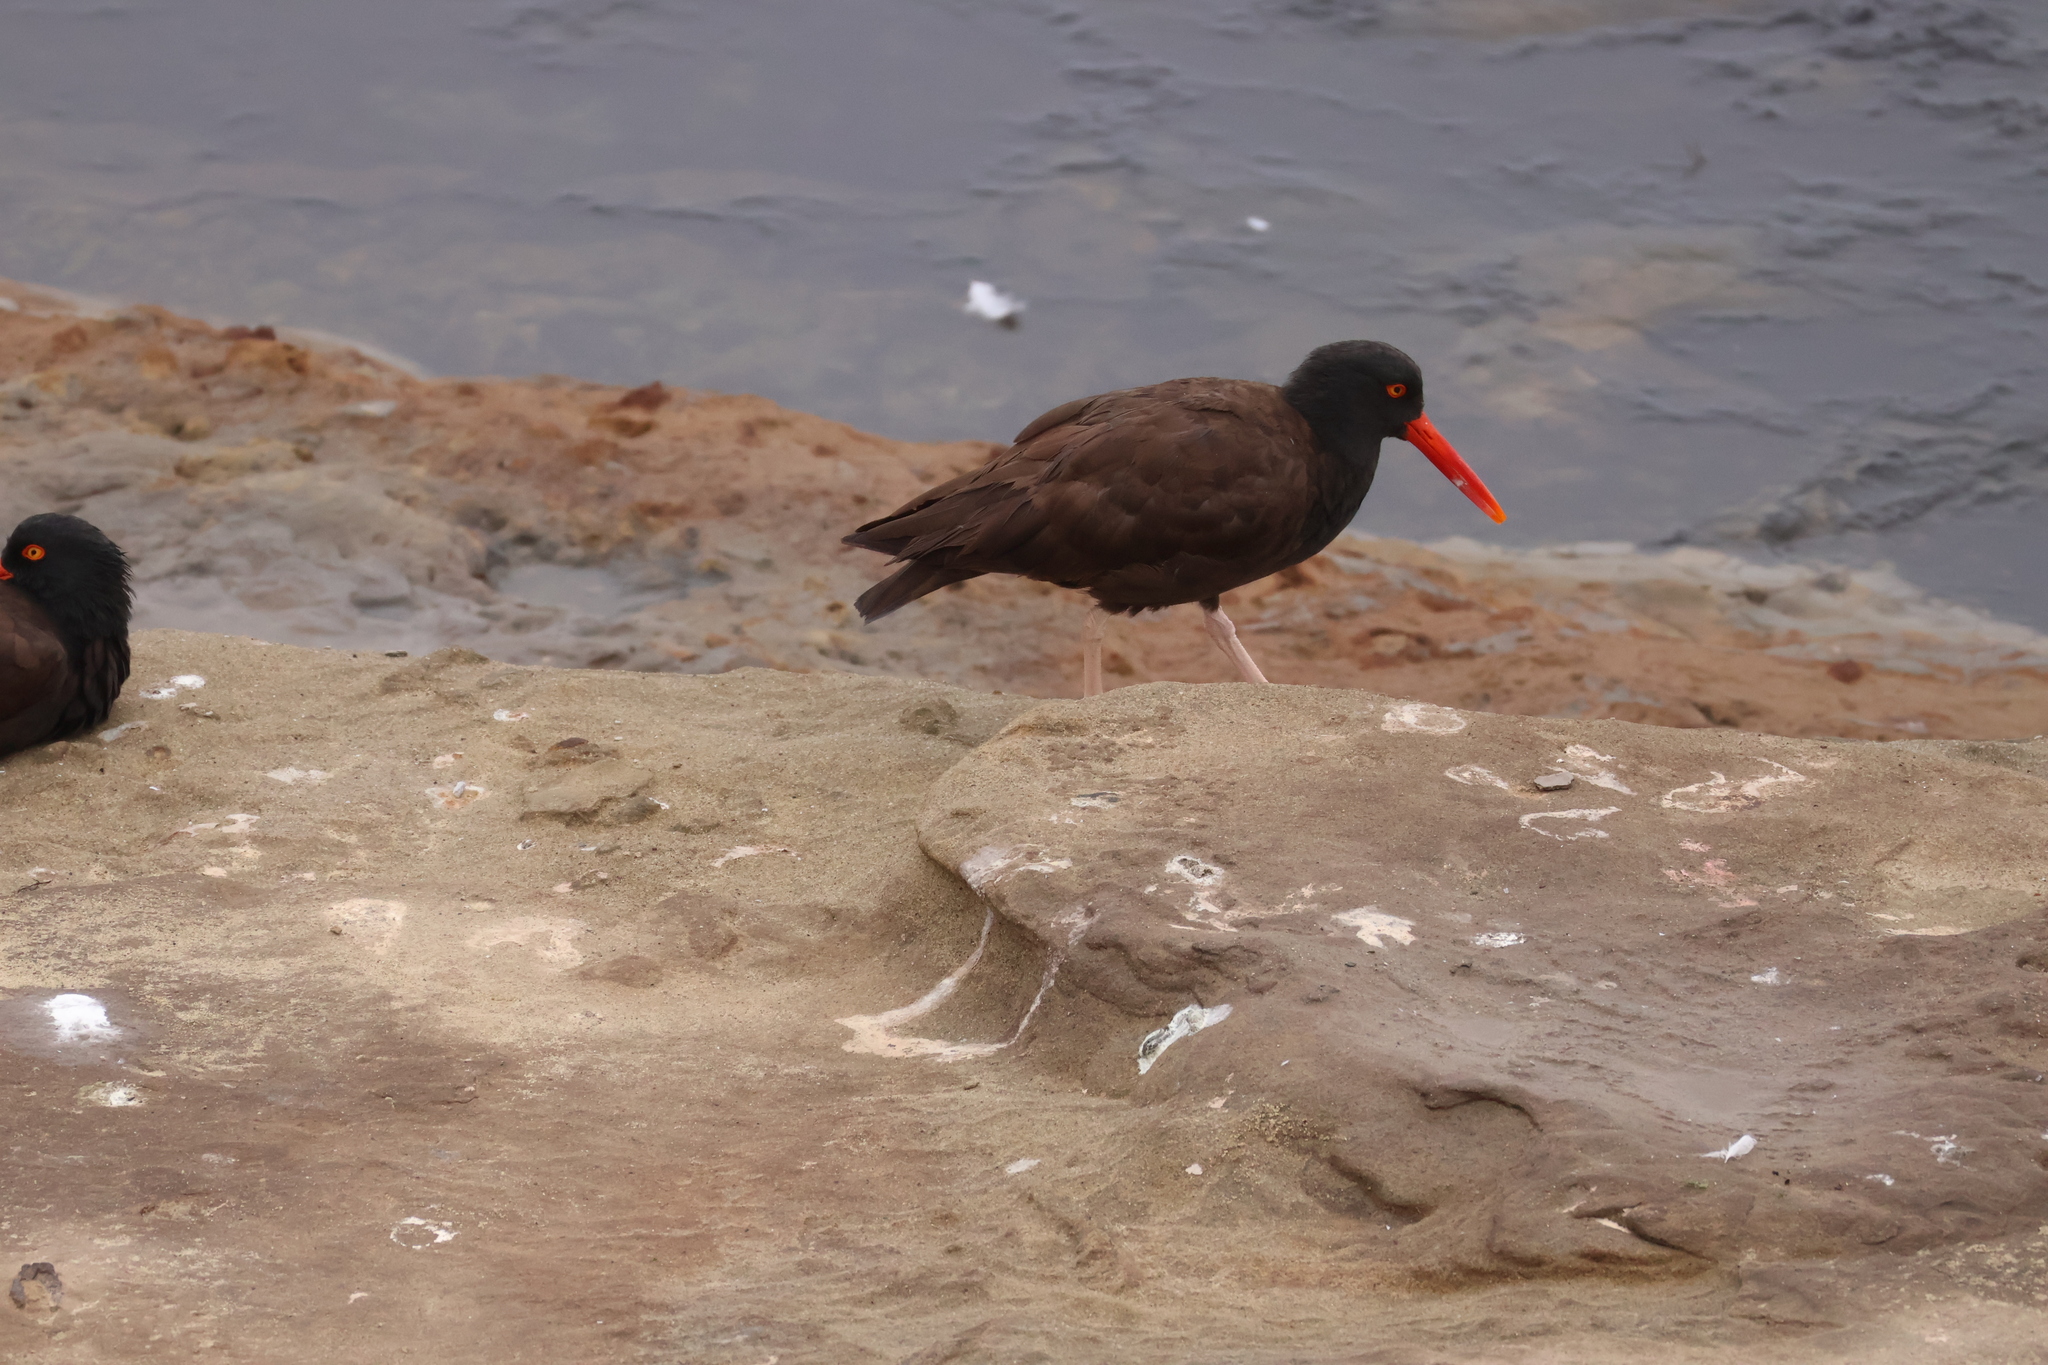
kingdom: Animalia
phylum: Chordata
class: Aves
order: Charadriiformes
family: Haematopodidae
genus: Haematopus
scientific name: Haematopus bachmani
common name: Black oystercatcher
